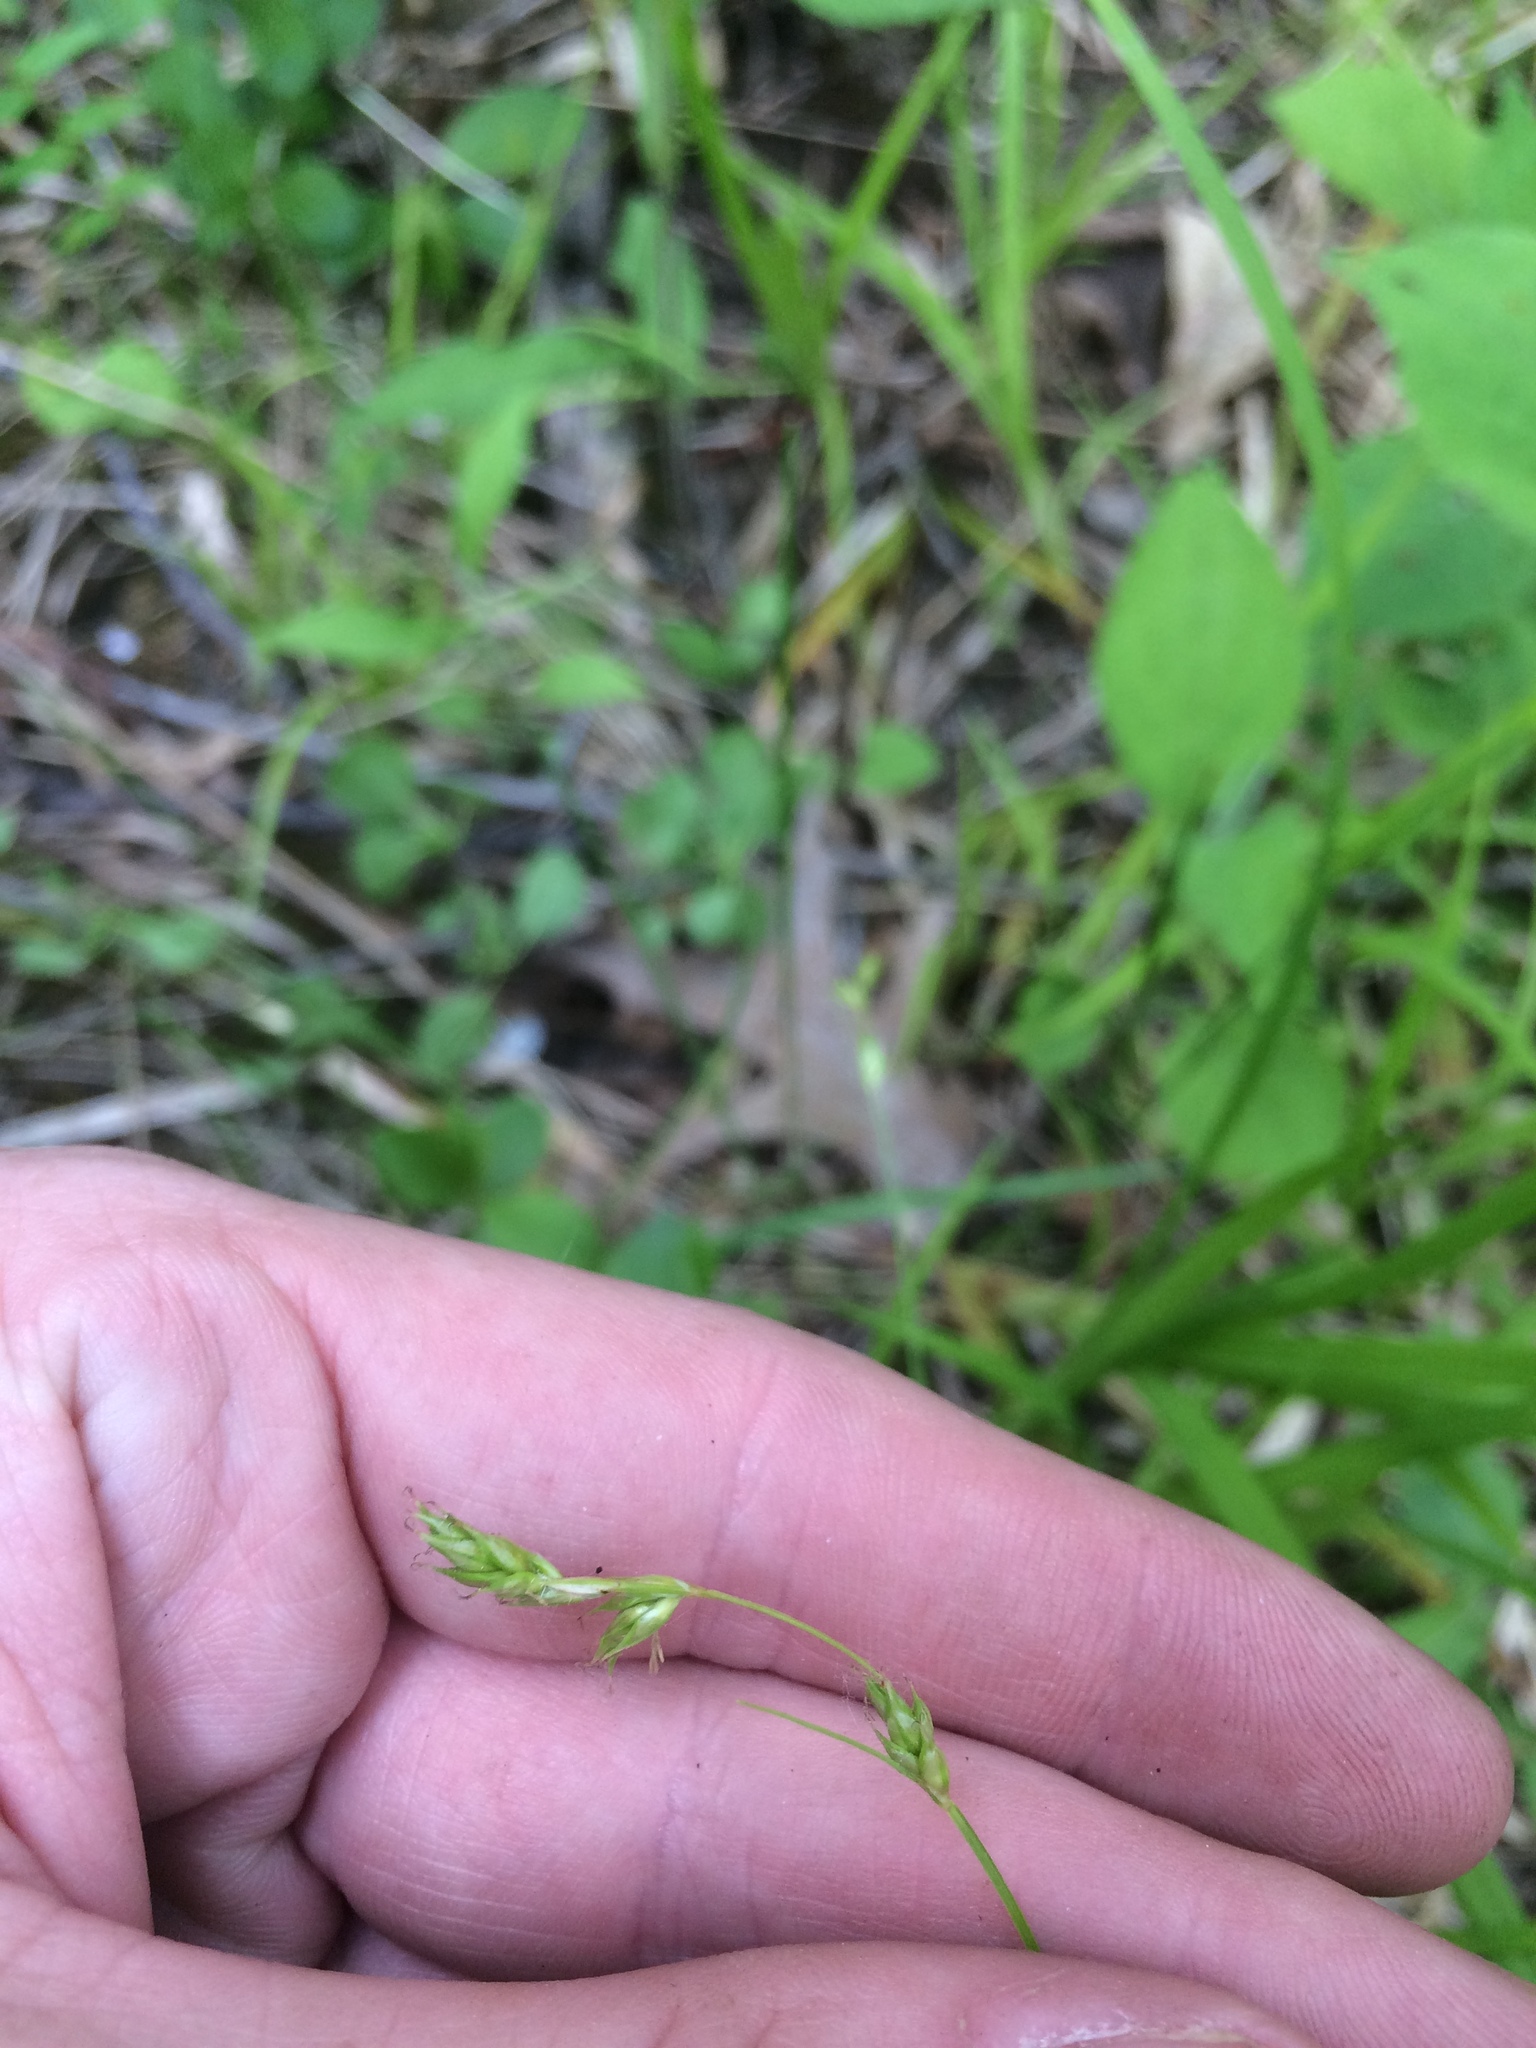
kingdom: Plantae
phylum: Tracheophyta
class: Liliopsida
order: Poales
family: Cyperaceae
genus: Carex
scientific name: Carex deweyana
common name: Dewey's sedge
